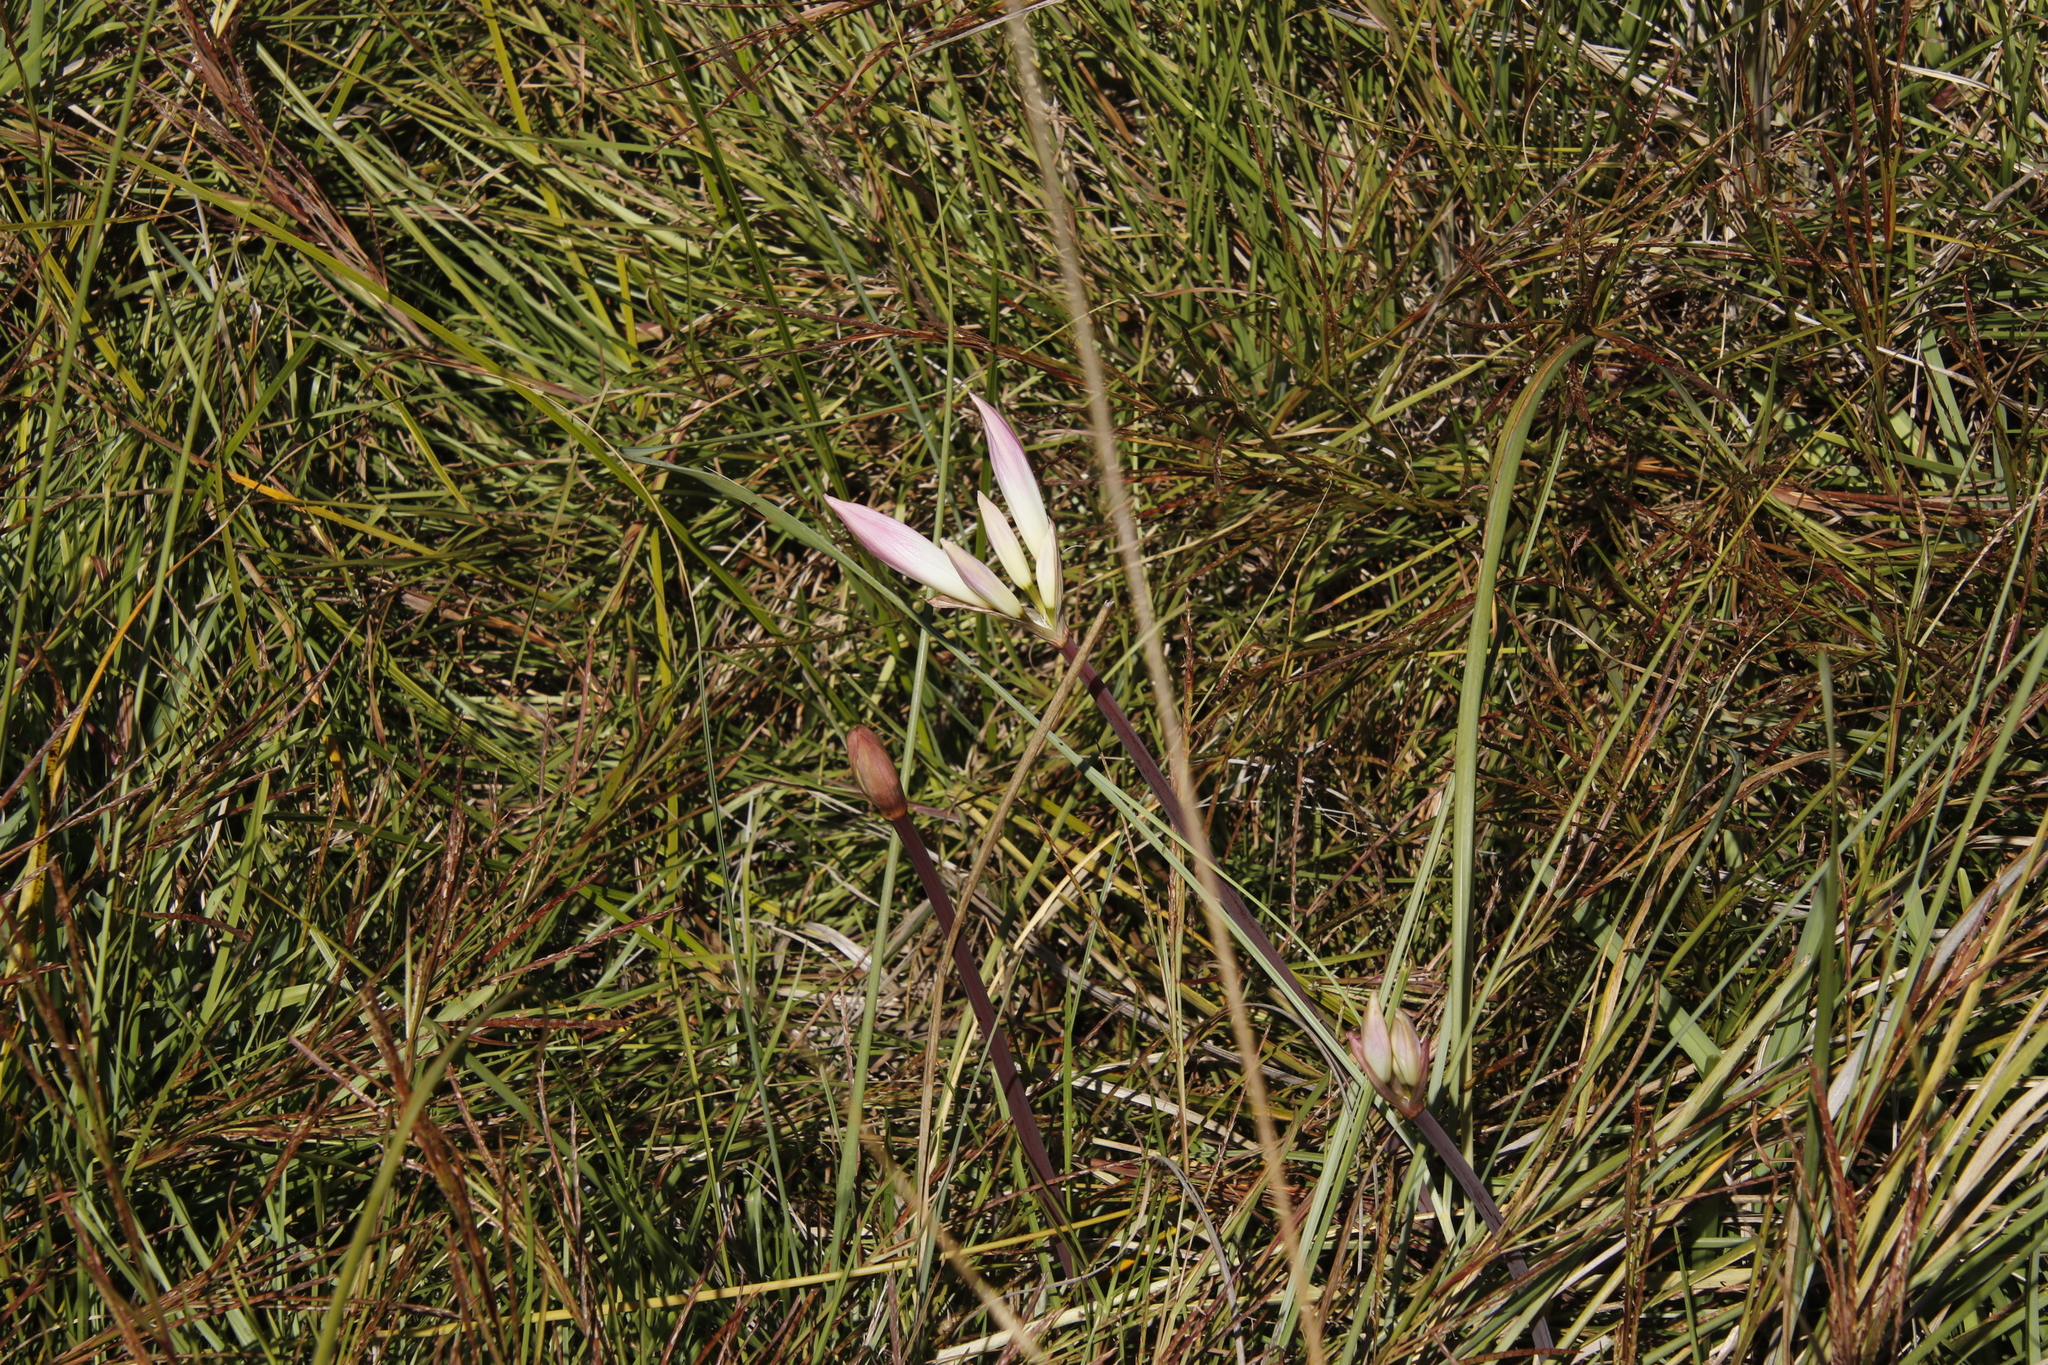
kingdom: Plantae
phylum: Tracheophyta
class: Liliopsida
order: Asparagales
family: Amaryllidaceae
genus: Amaryllis
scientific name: Amaryllis belladonna
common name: Jersey lily
